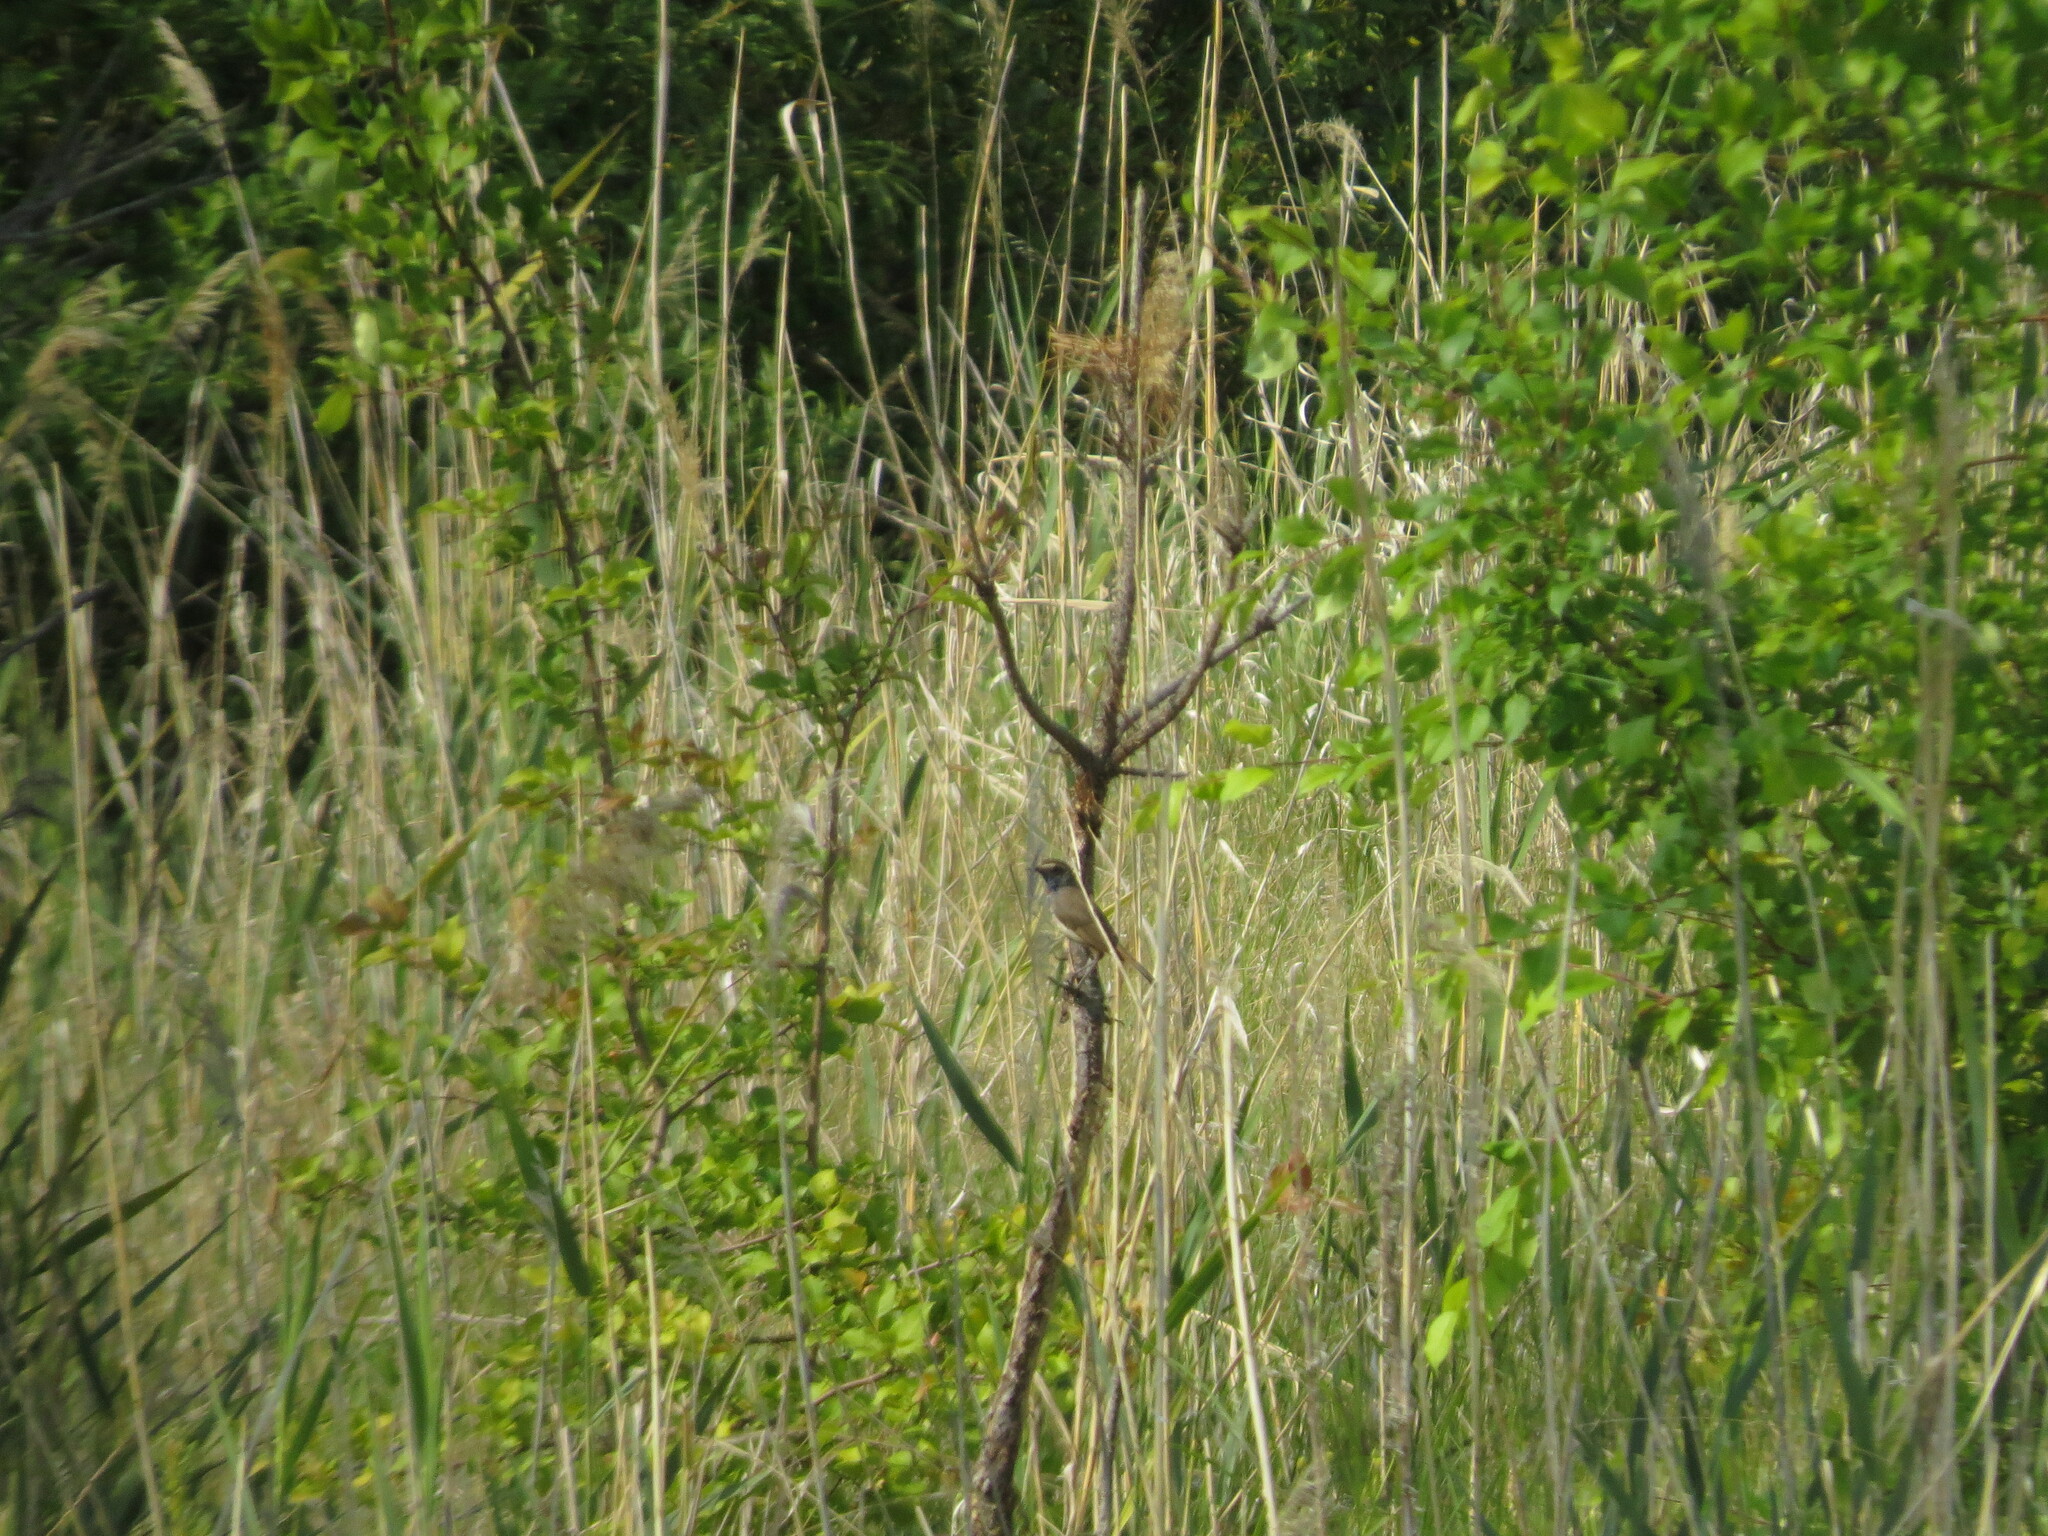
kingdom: Animalia
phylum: Chordata
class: Aves
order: Passeriformes
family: Muscicapidae
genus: Luscinia
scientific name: Luscinia svecica
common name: Bluethroat
